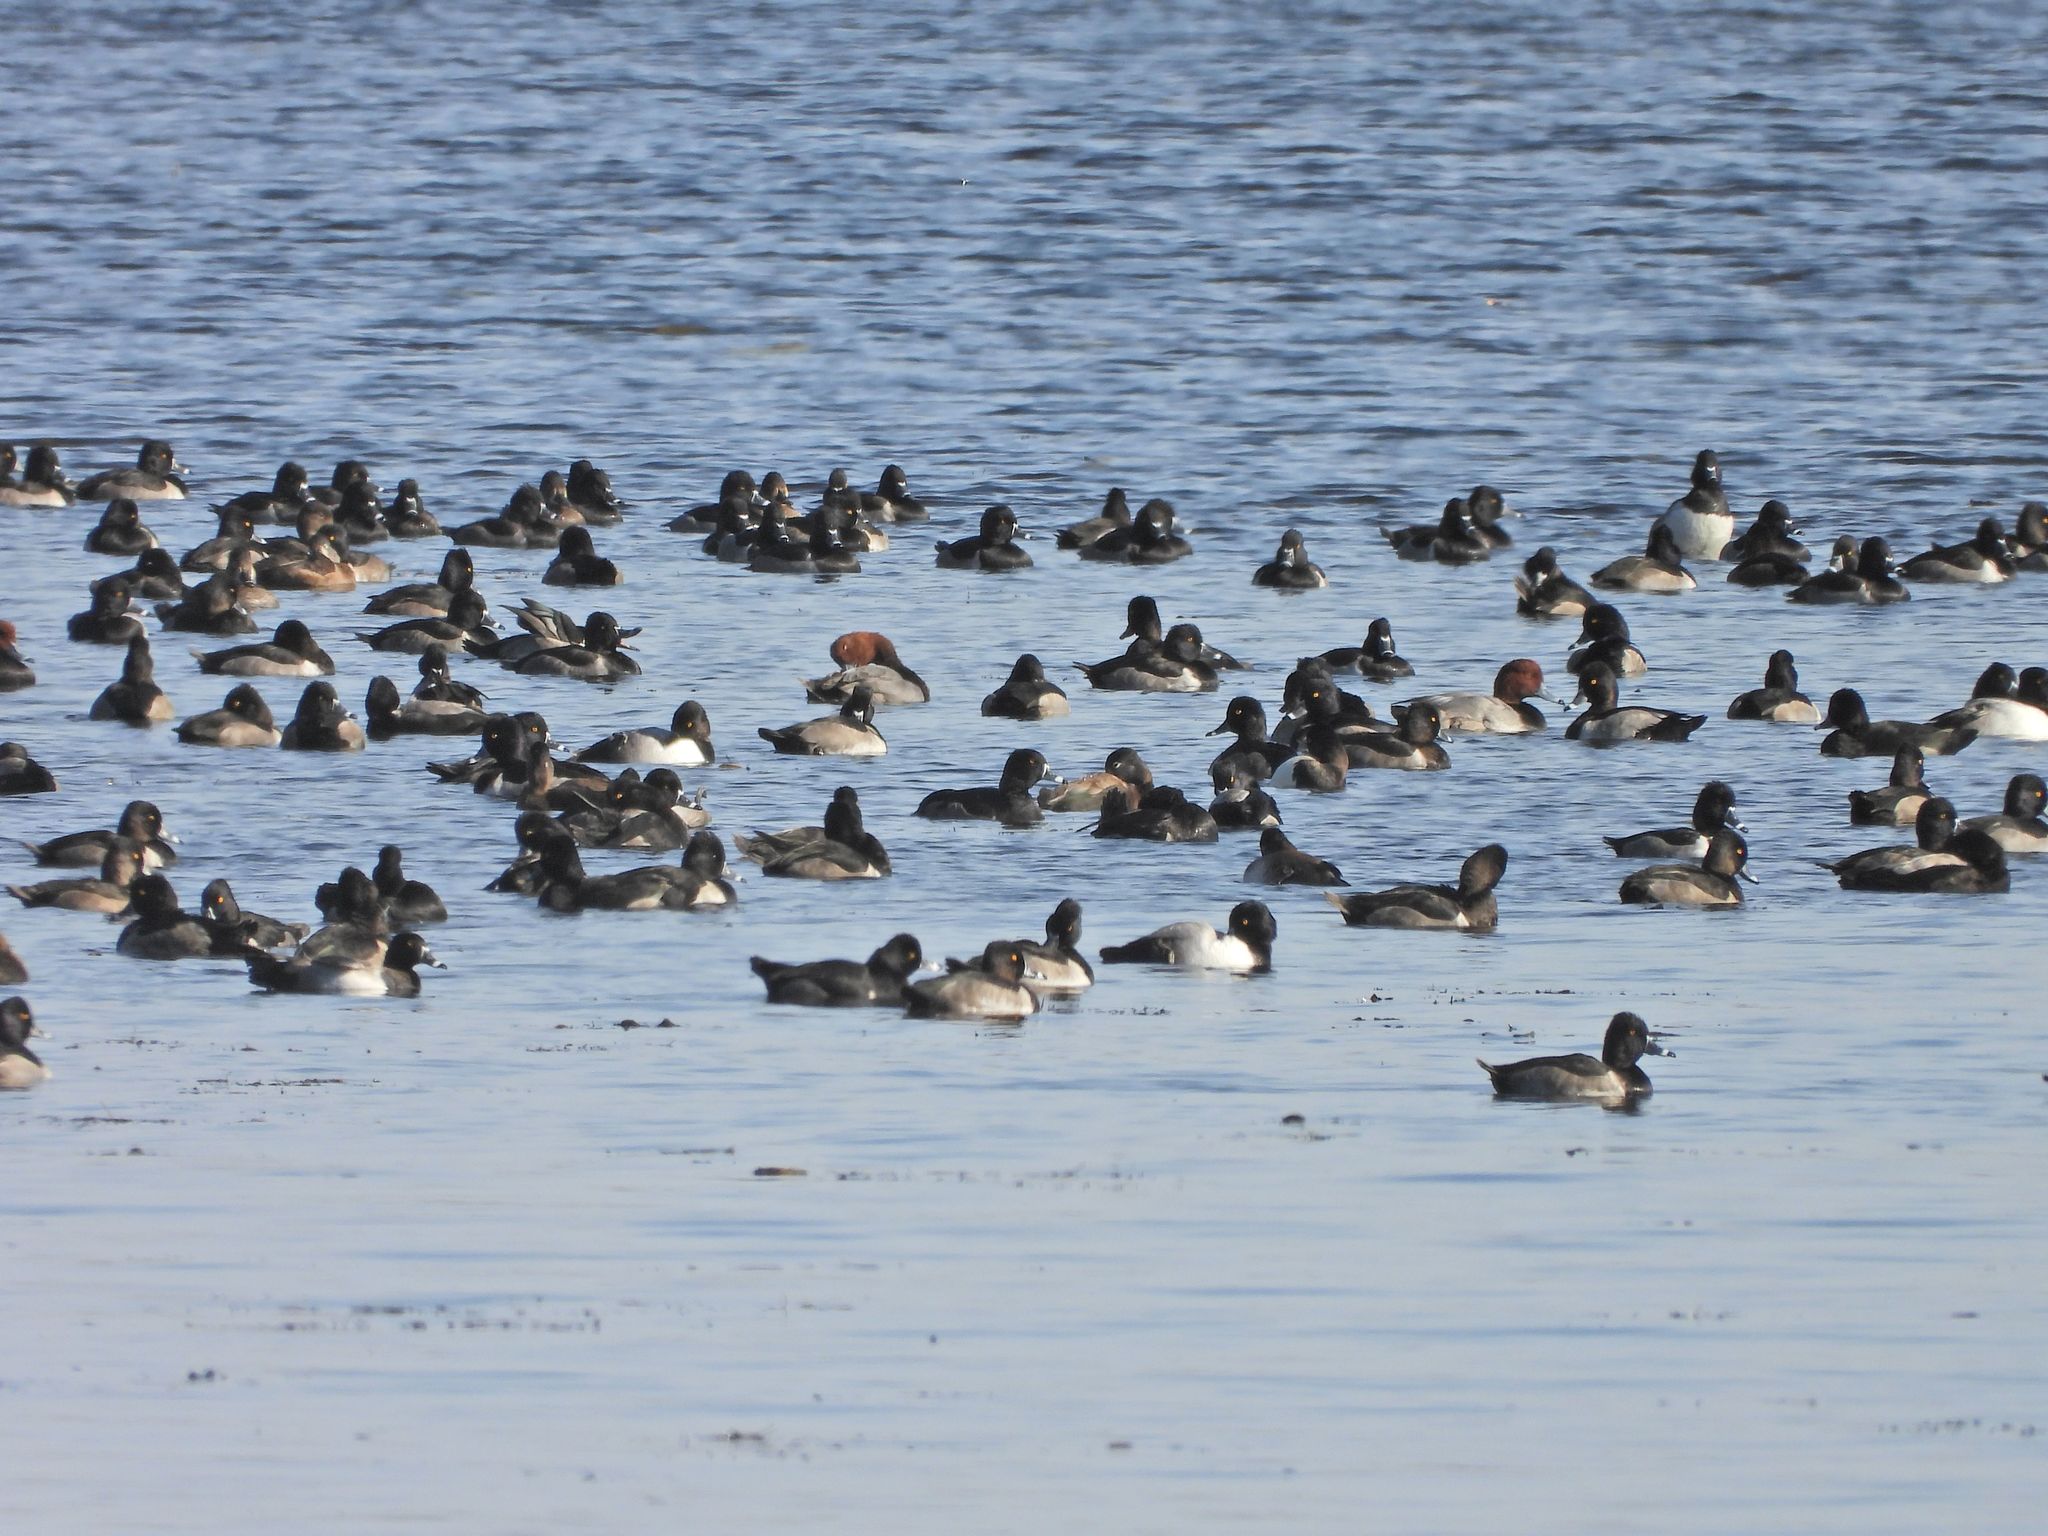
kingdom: Animalia
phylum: Chordata
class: Aves
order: Anseriformes
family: Anatidae
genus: Aythya
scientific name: Aythya collaris
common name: Ring-necked duck
